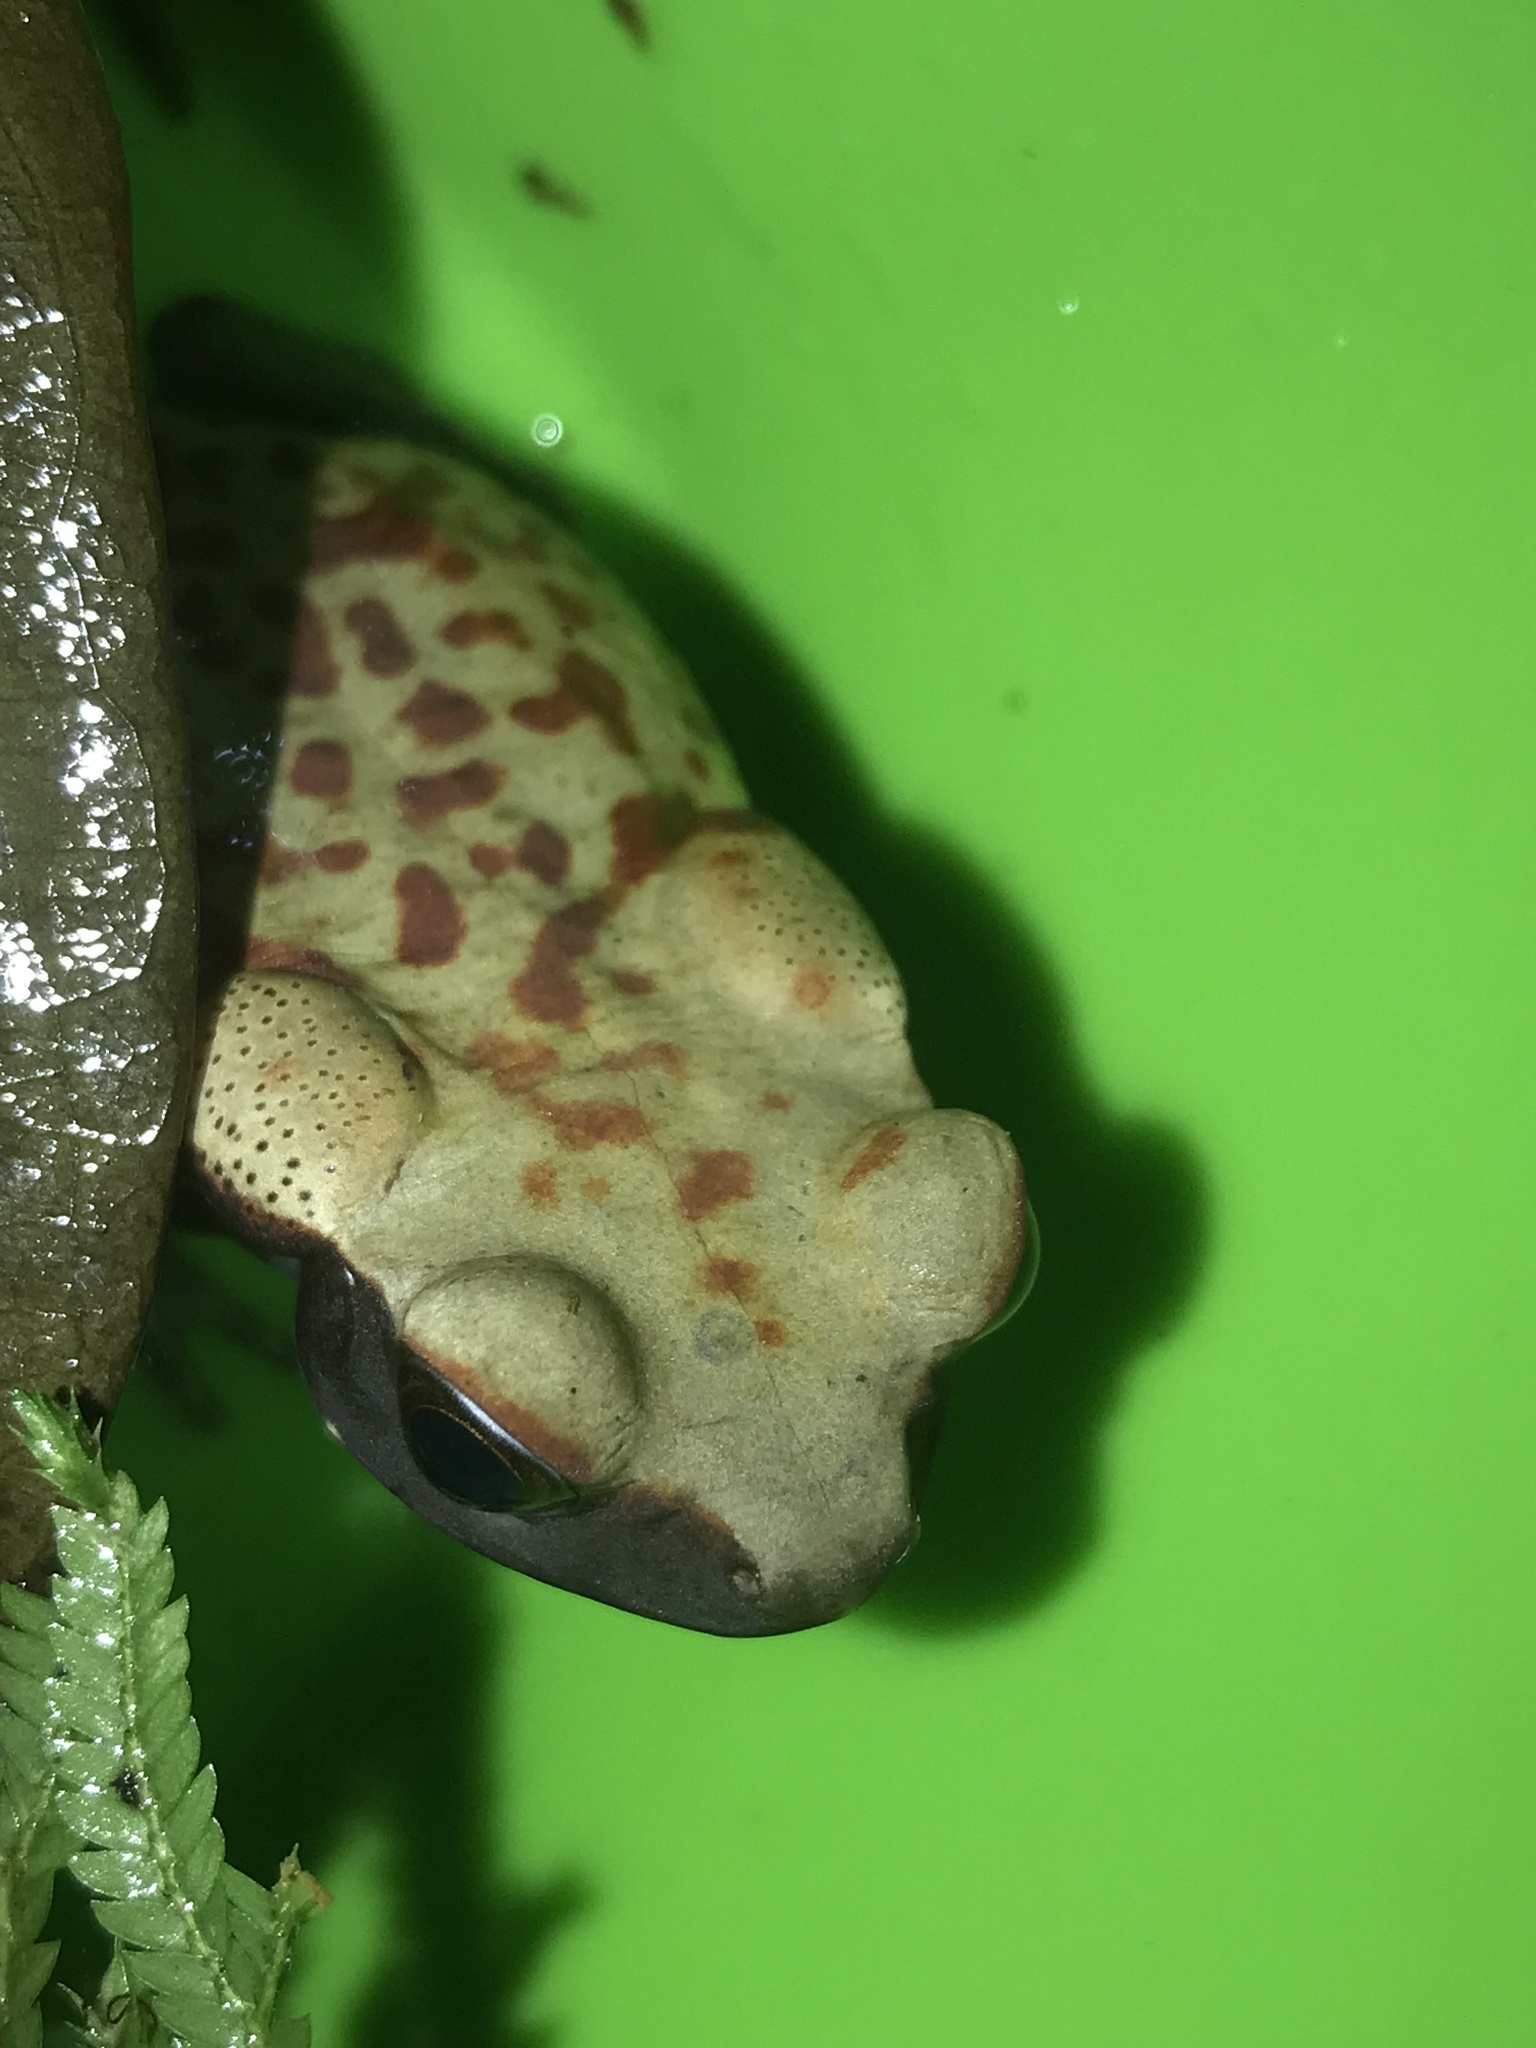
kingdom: Animalia
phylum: Chordata
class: Amphibia
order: Anura
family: Bufonidae
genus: Rhaebo
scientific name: Rhaebo guttatus
